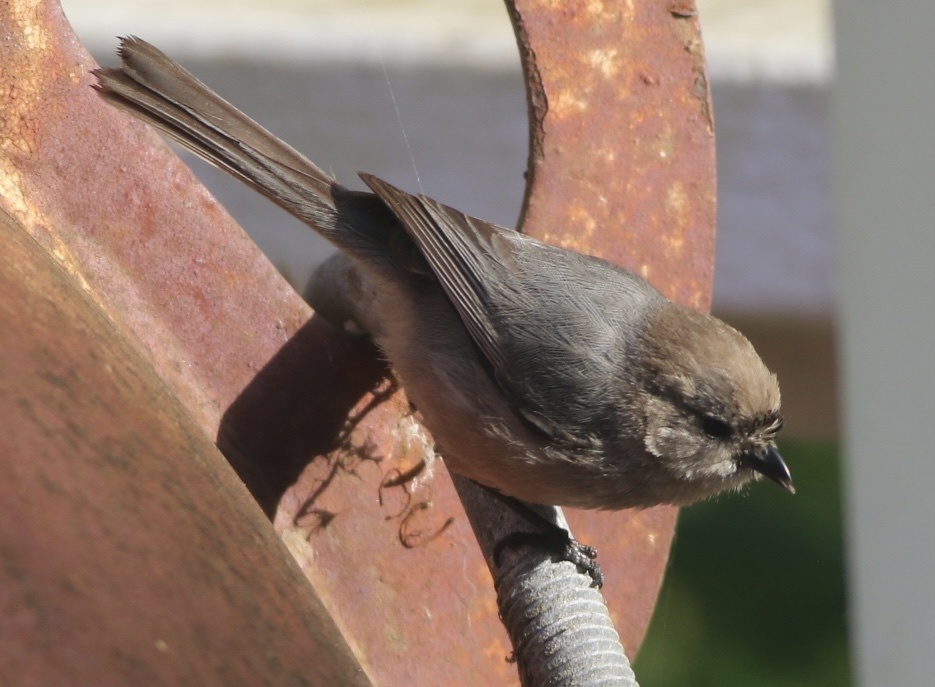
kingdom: Animalia
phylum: Chordata
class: Aves
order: Passeriformes
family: Aegithalidae
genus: Psaltriparus
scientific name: Psaltriparus minimus
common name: American bushtit
